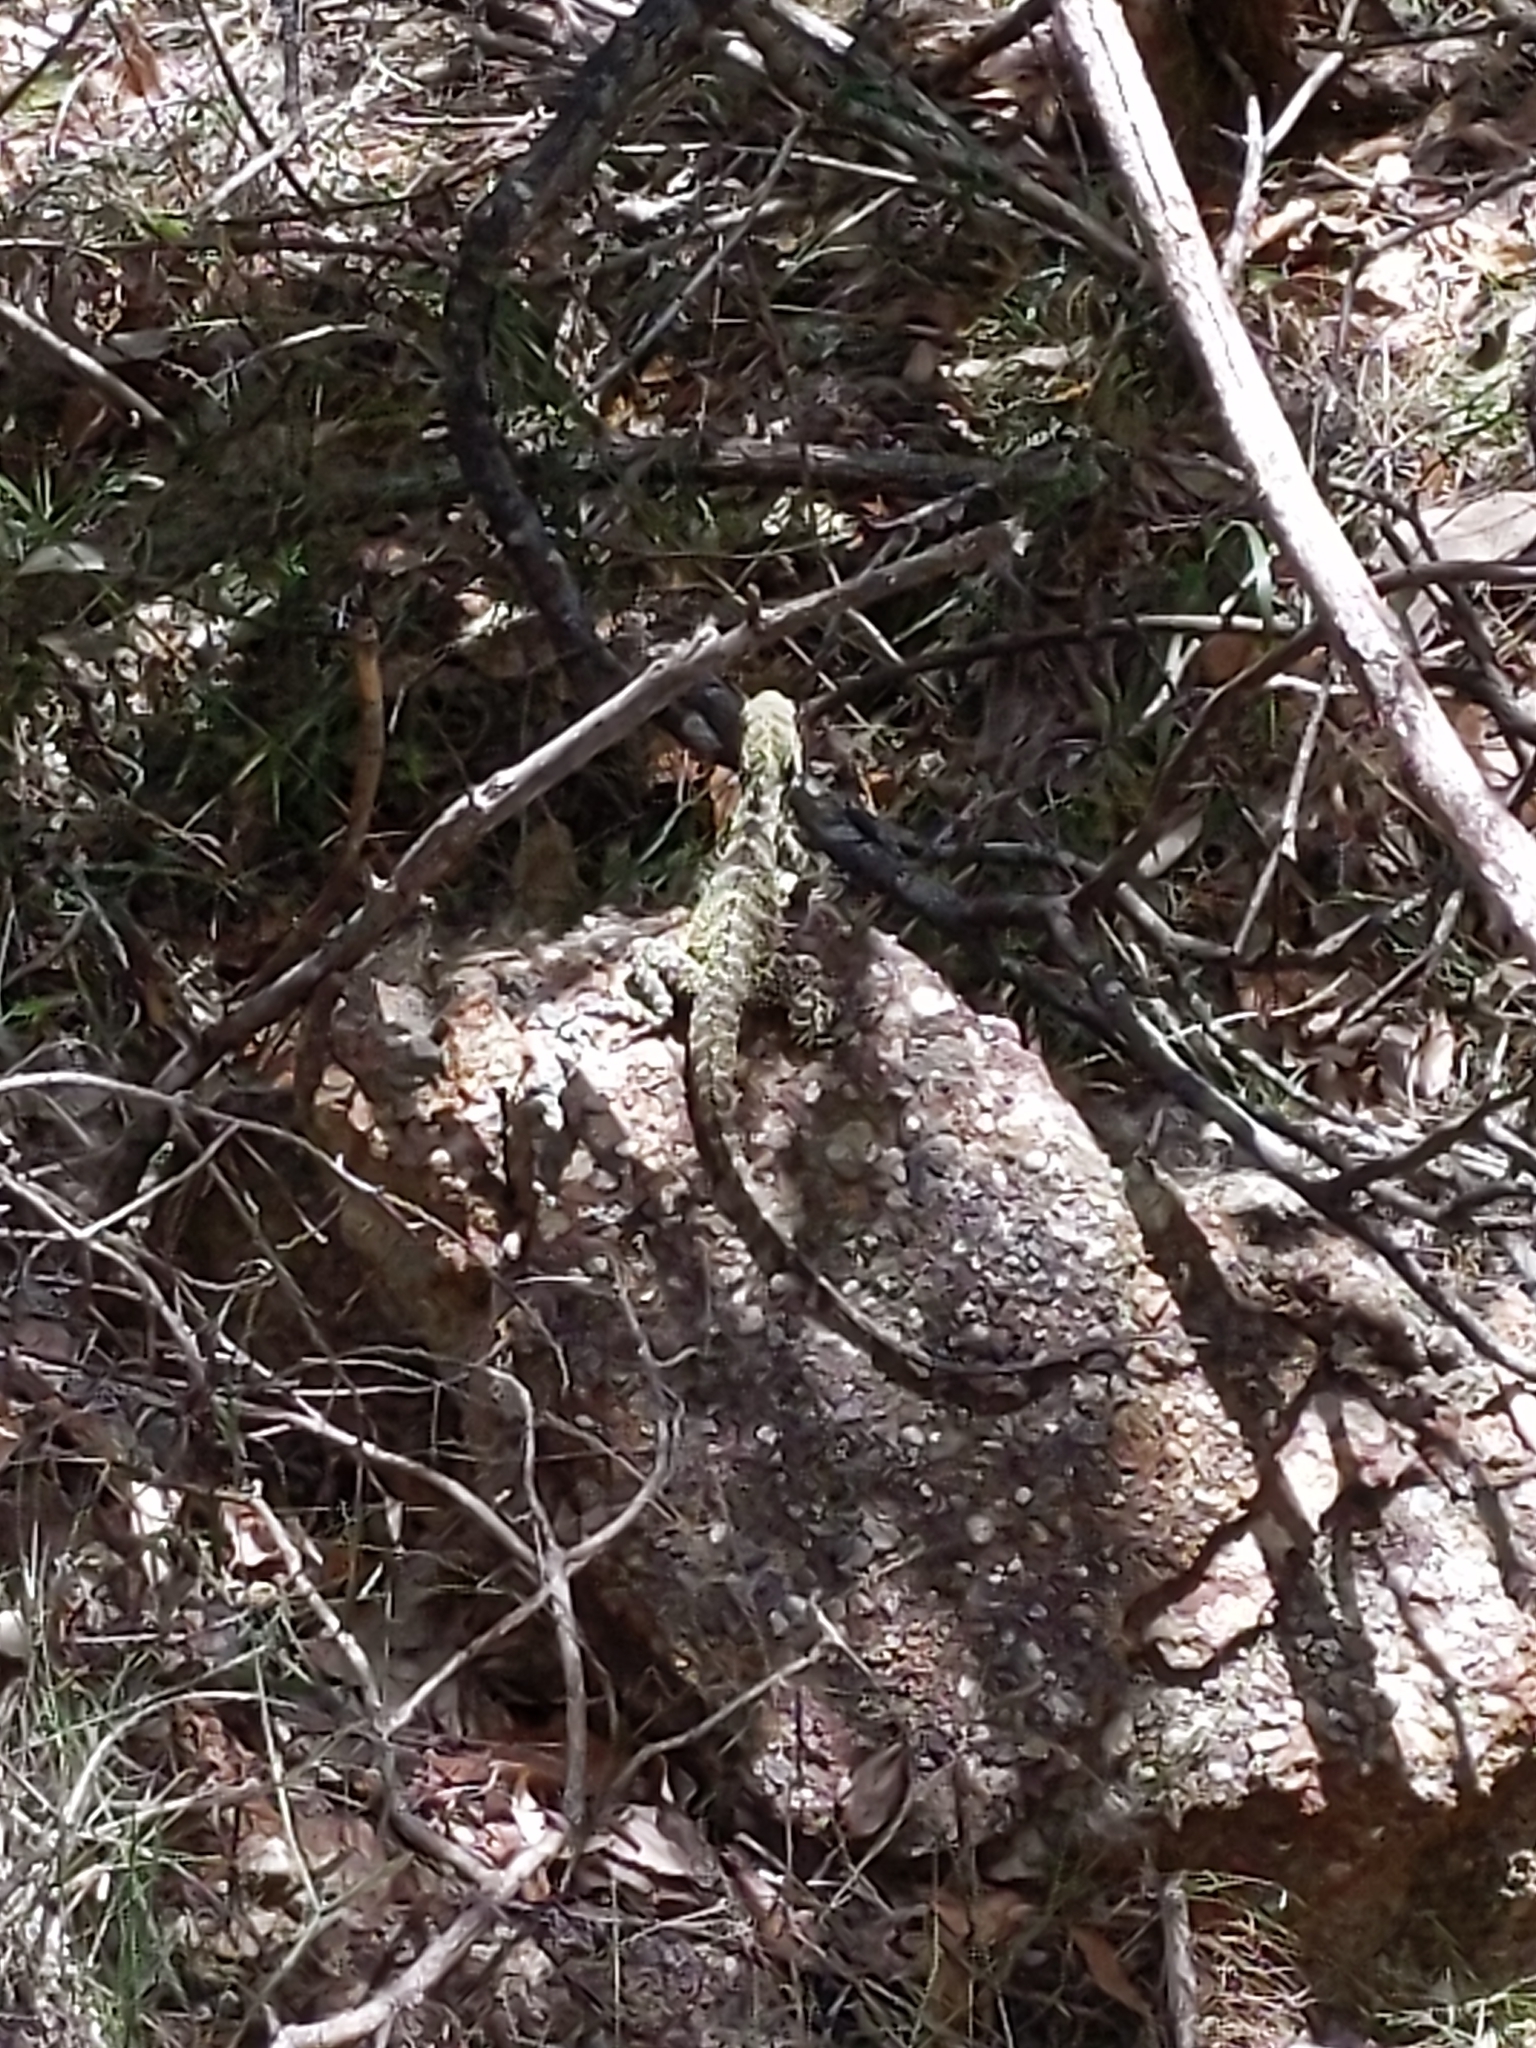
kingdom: Animalia
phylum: Chordata
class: Squamata
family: Agamidae
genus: Intellagama
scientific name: Intellagama lesueurii
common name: Eastern water dragon
